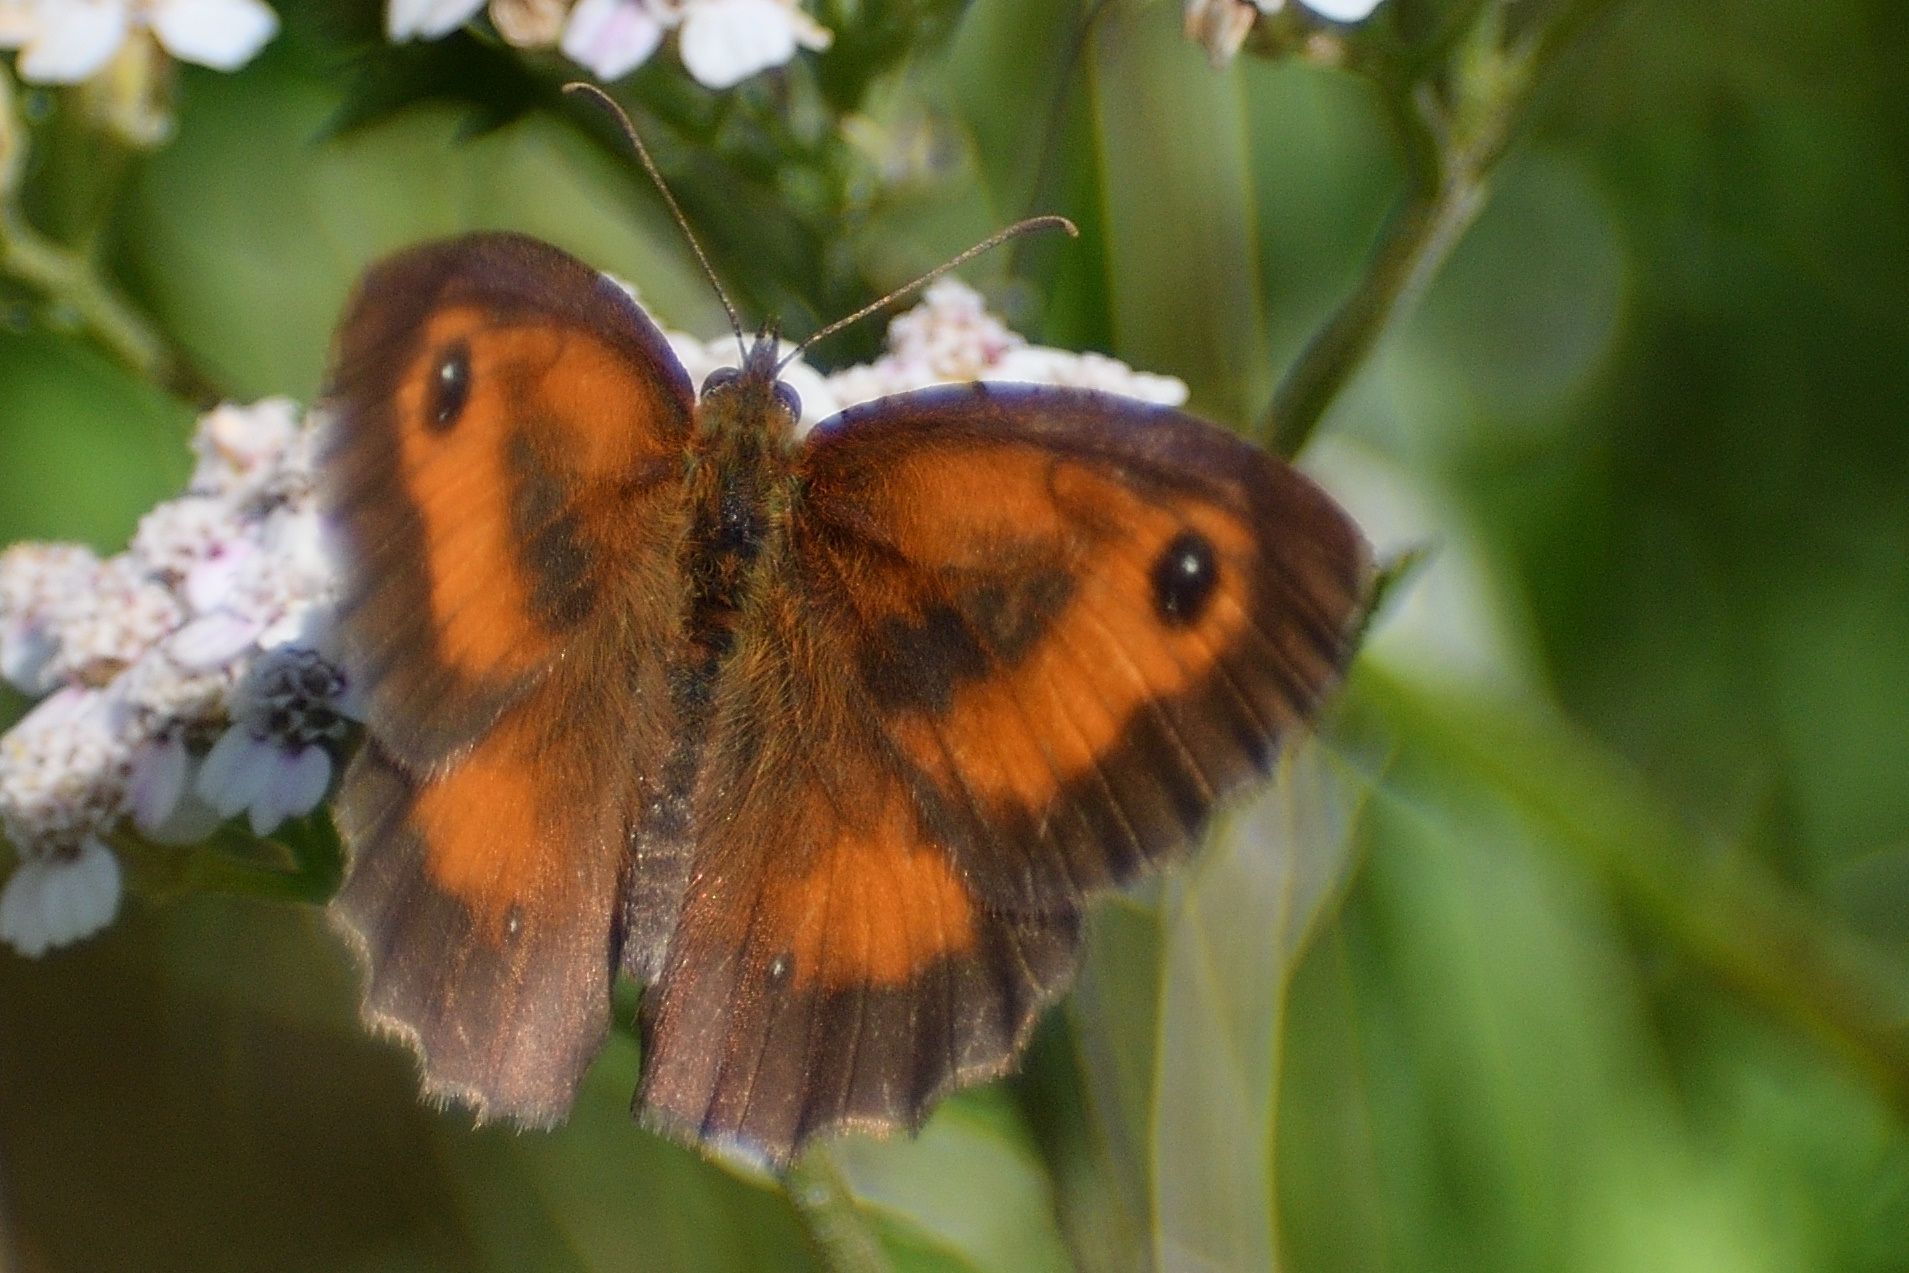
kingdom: Animalia
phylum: Arthropoda
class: Insecta
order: Lepidoptera
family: Nymphalidae
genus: Pyronia
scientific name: Pyronia tithonus
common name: Gatekeeper
